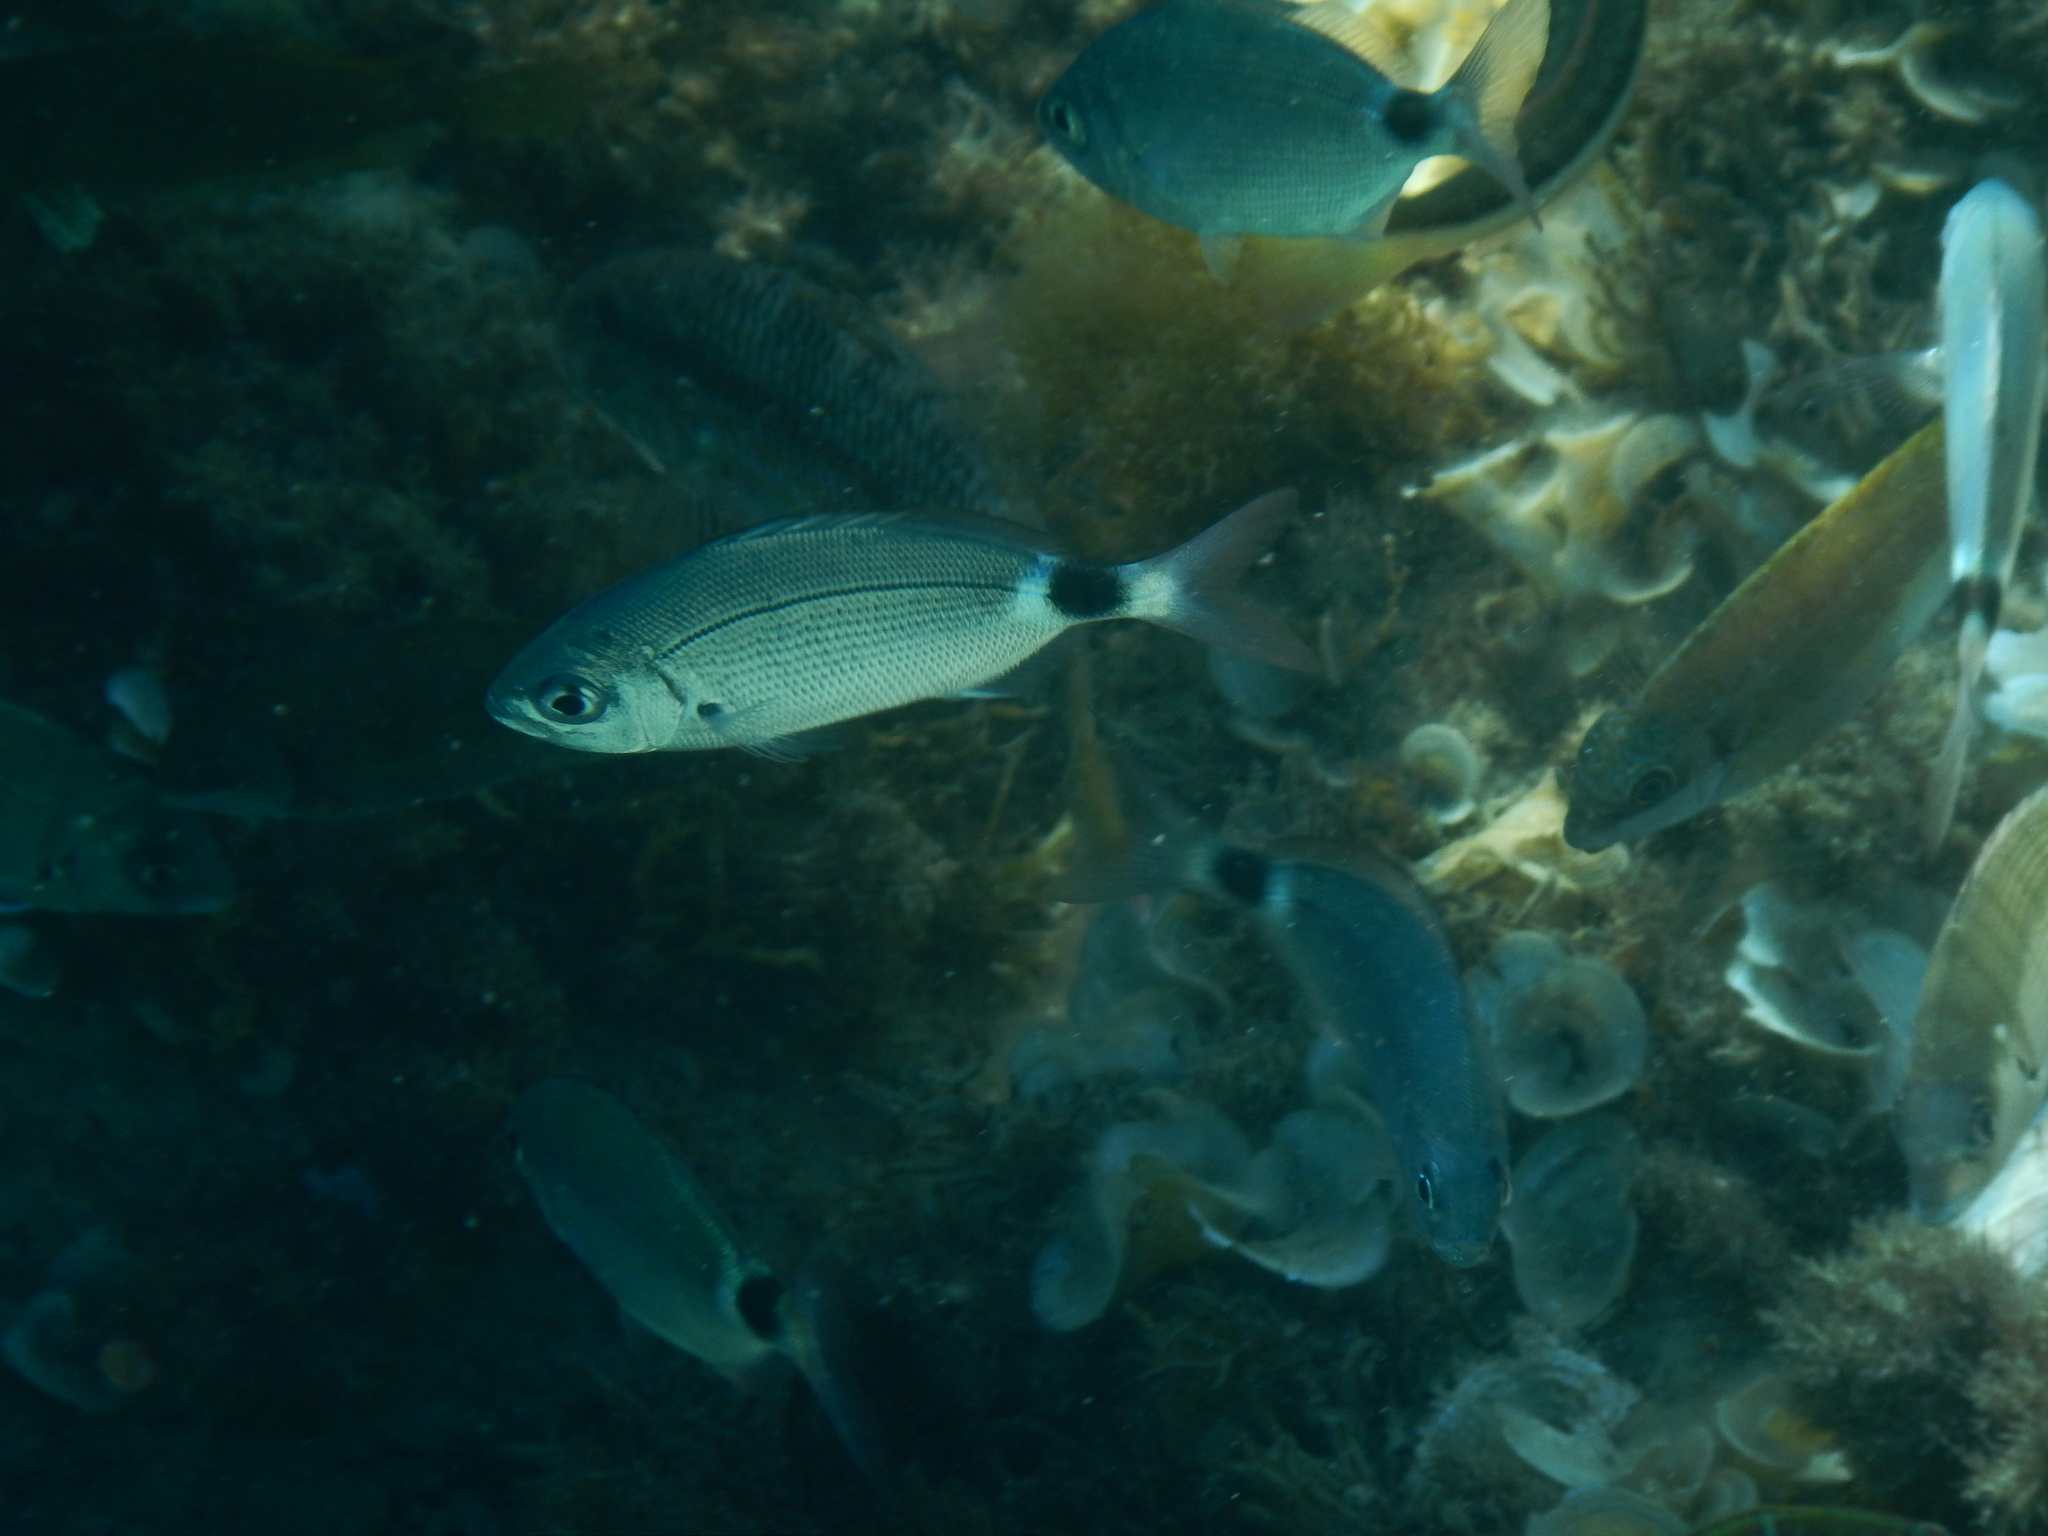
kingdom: Animalia
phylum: Chordata
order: Perciformes
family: Sparidae
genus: Oblada
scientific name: Oblada melanura
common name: Saddled seabream
